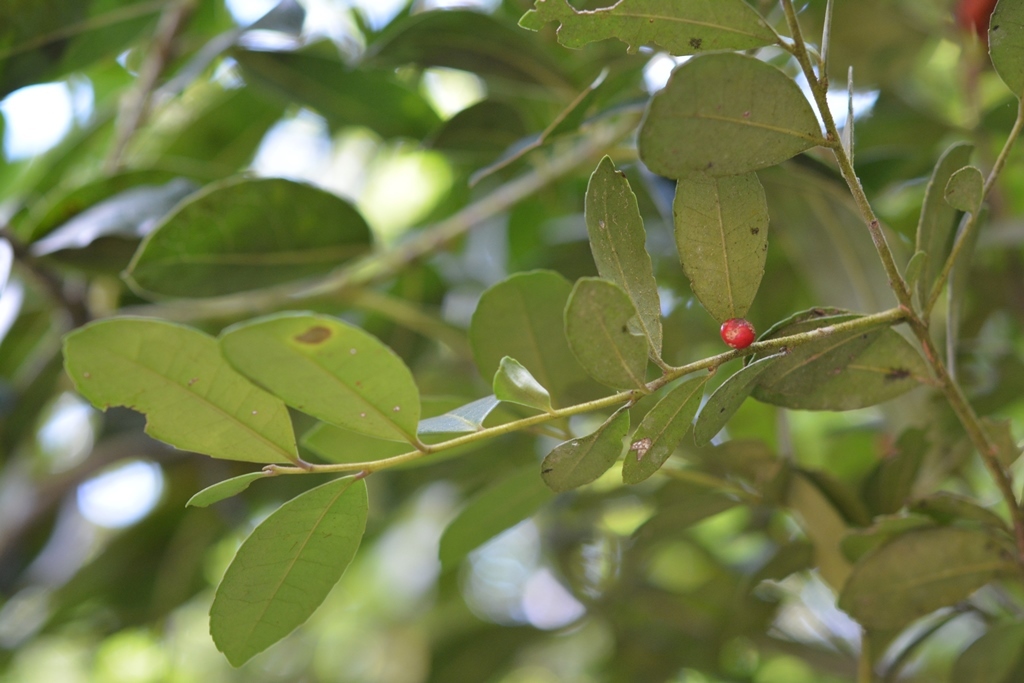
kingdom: Plantae
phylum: Tracheophyta
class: Magnoliopsida
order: Aquifoliales
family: Aquifoliaceae
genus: Ilex
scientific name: Ilex discolor
